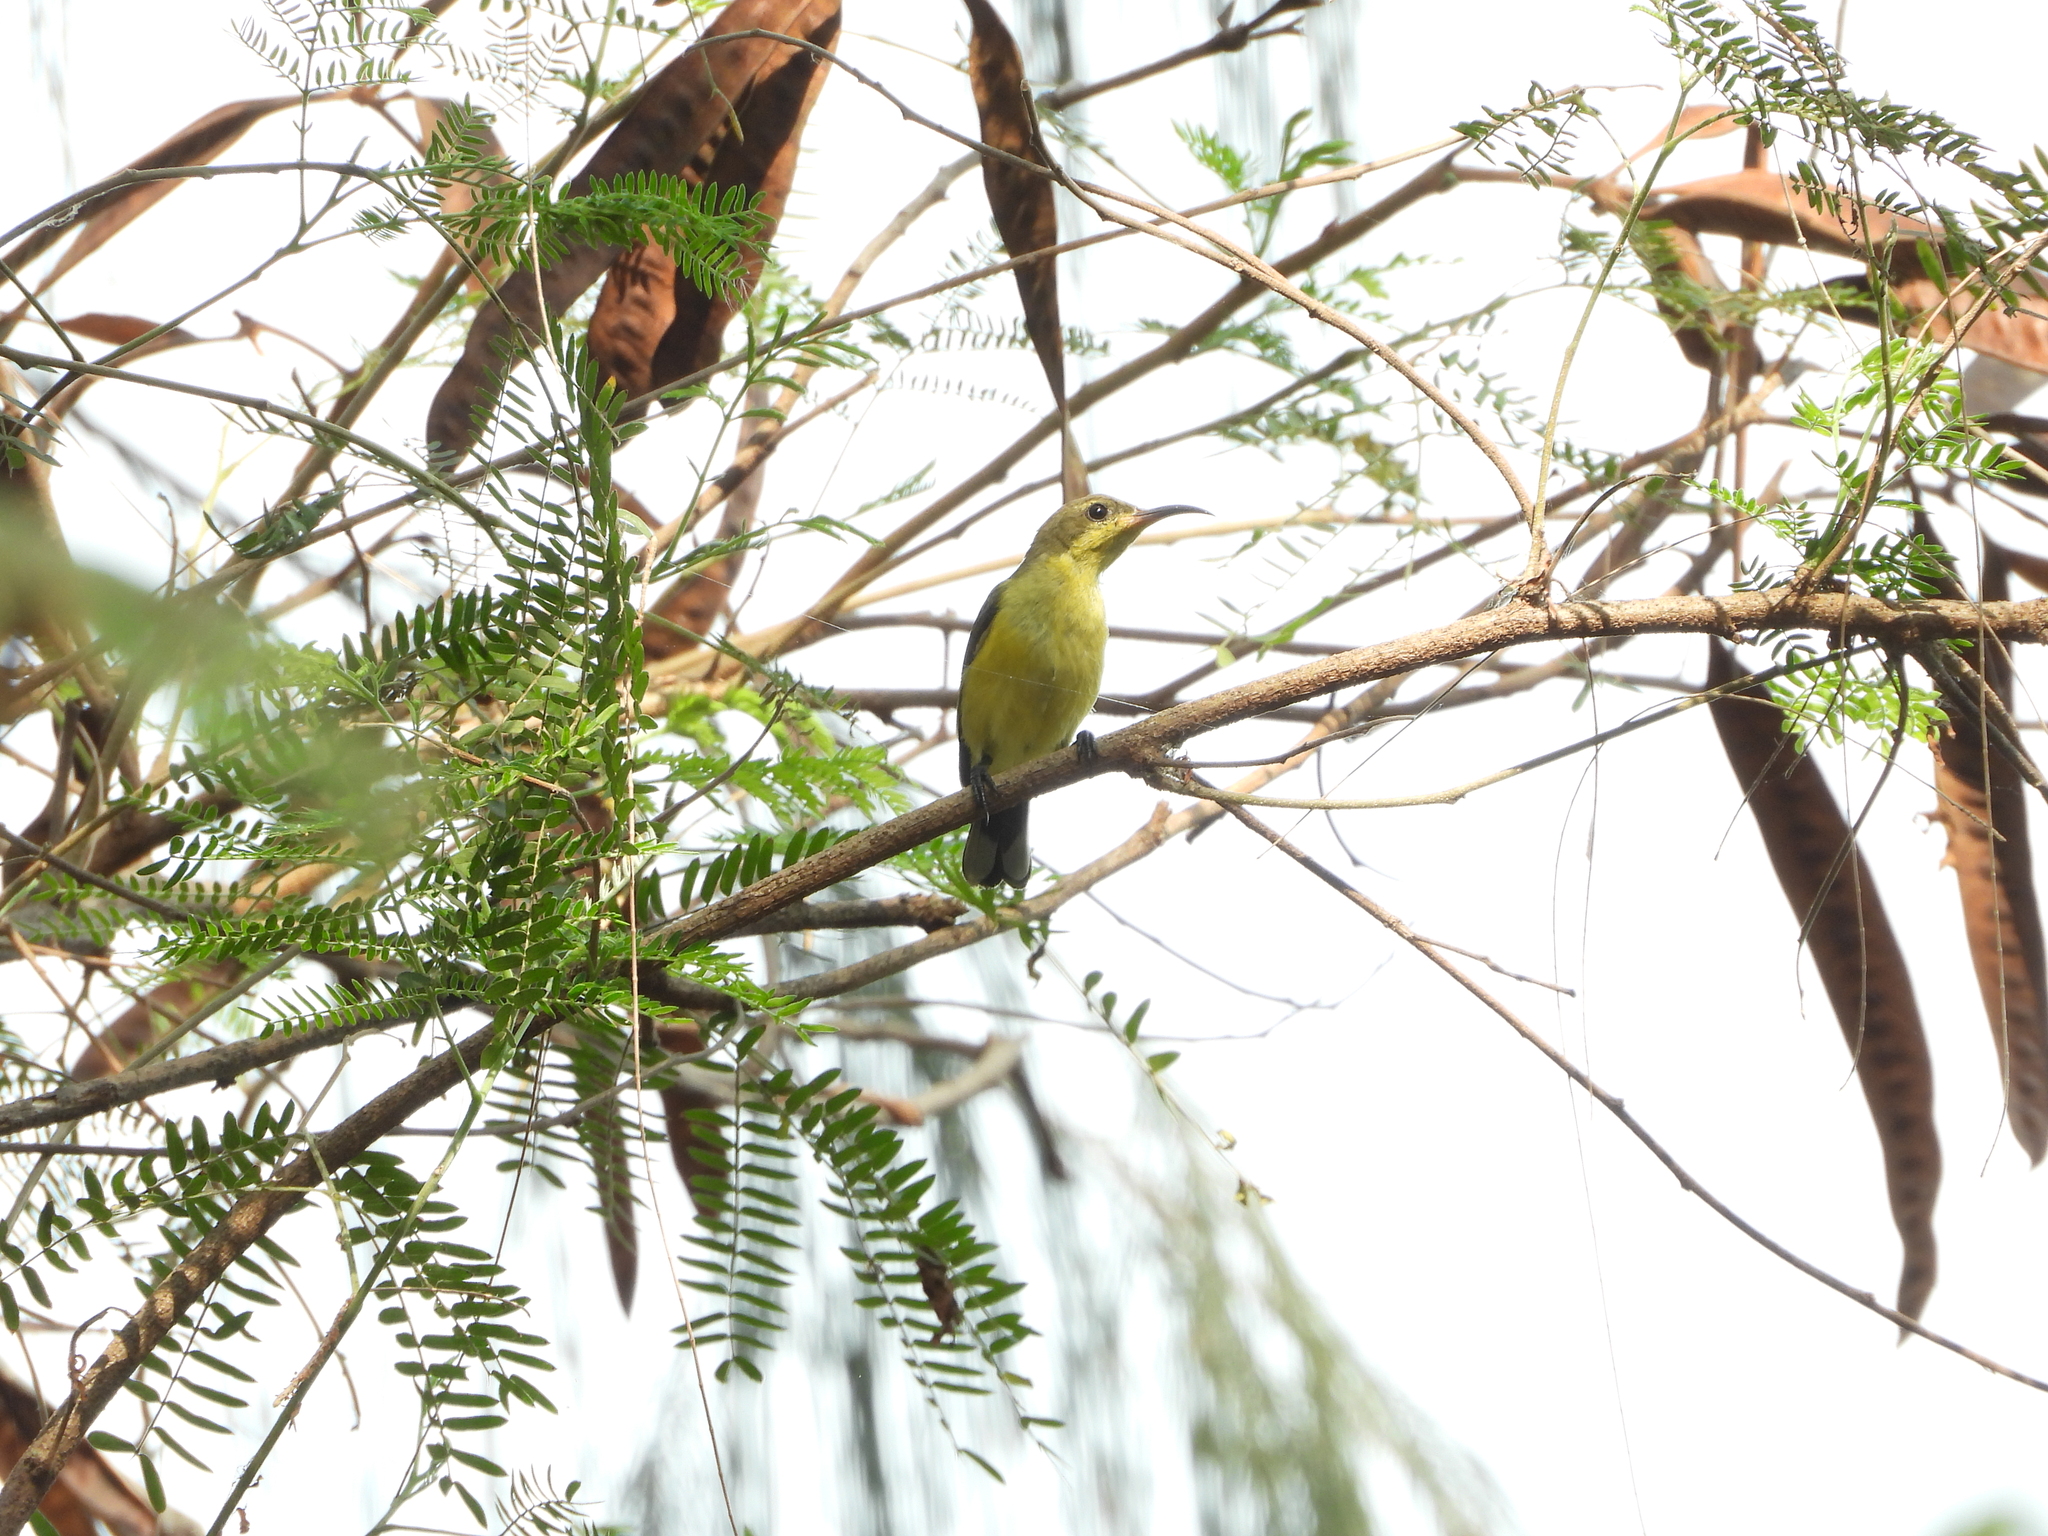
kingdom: Animalia
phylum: Chordata
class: Aves
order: Passeriformes
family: Nectariniidae
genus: Cinnyris
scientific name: Cinnyris
